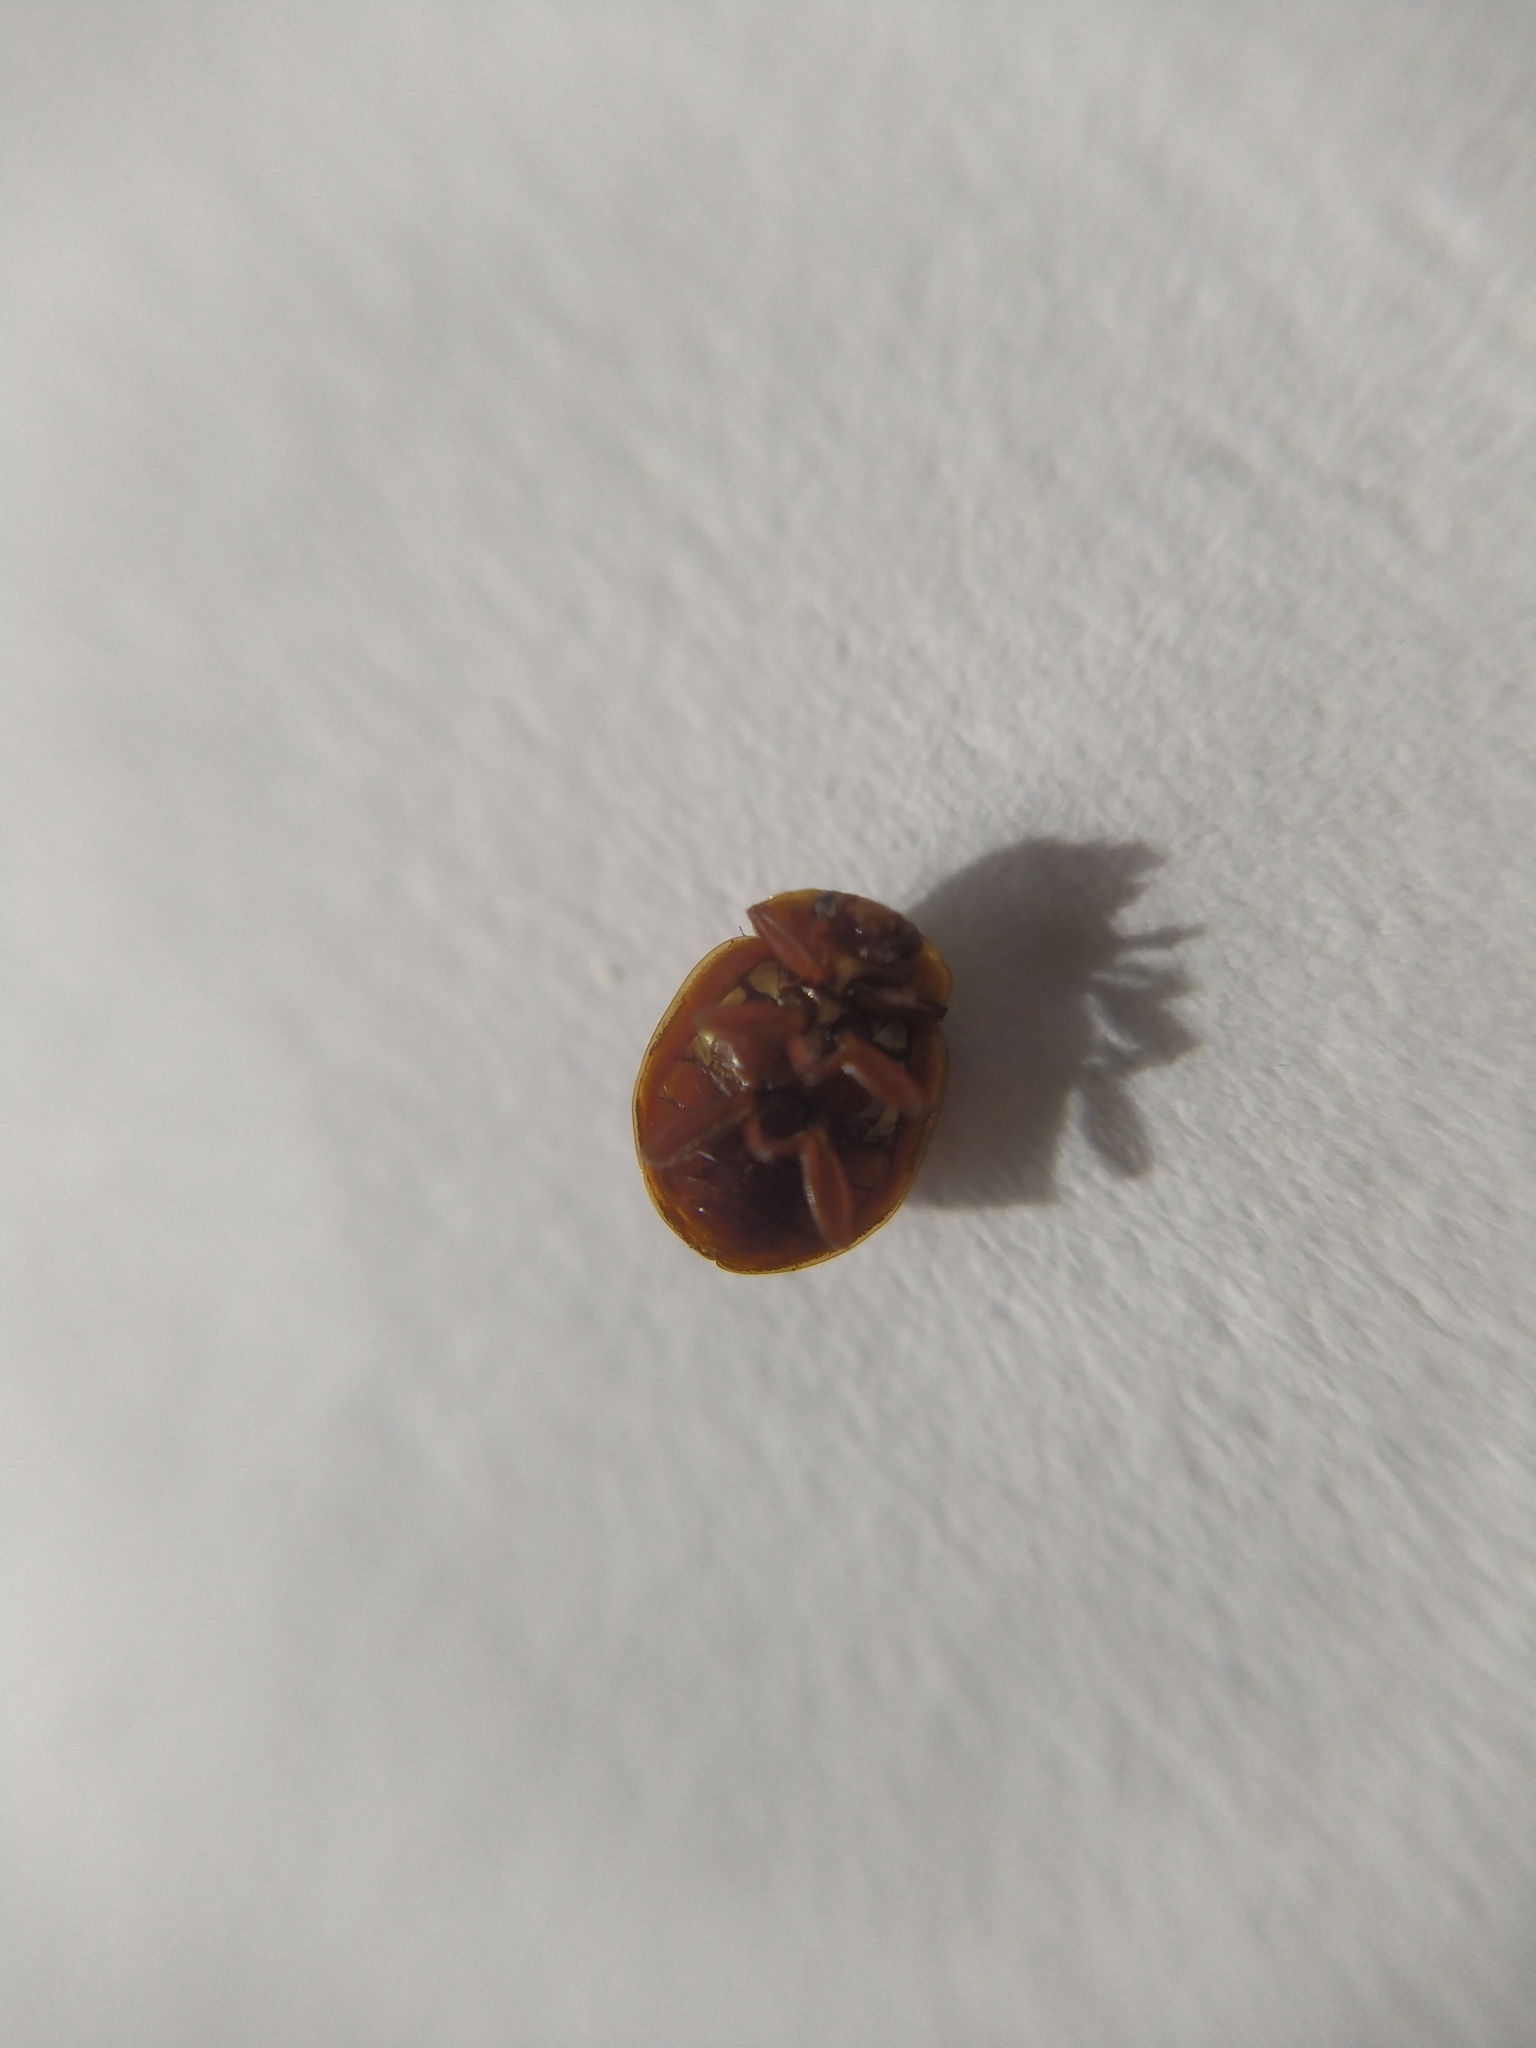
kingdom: Animalia
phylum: Arthropoda
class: Insecta
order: Coleoptera
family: Coccinellidae
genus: Myrrha
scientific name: Myrrha octodecimguttata
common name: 18-spot ladybird
